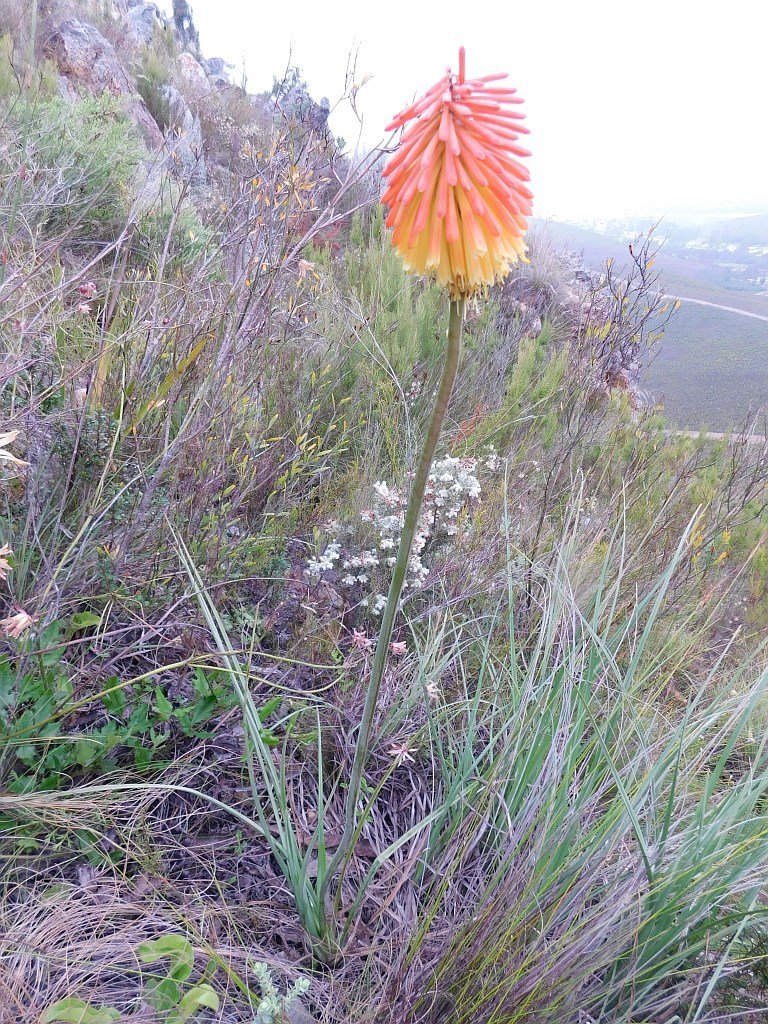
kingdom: Plantae
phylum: Tracheophyta
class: Liliopsida
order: Asparagales
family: Asphodelaceae
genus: Kniphofia
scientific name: Kniphofia uvaria
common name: Red-hot-poker
